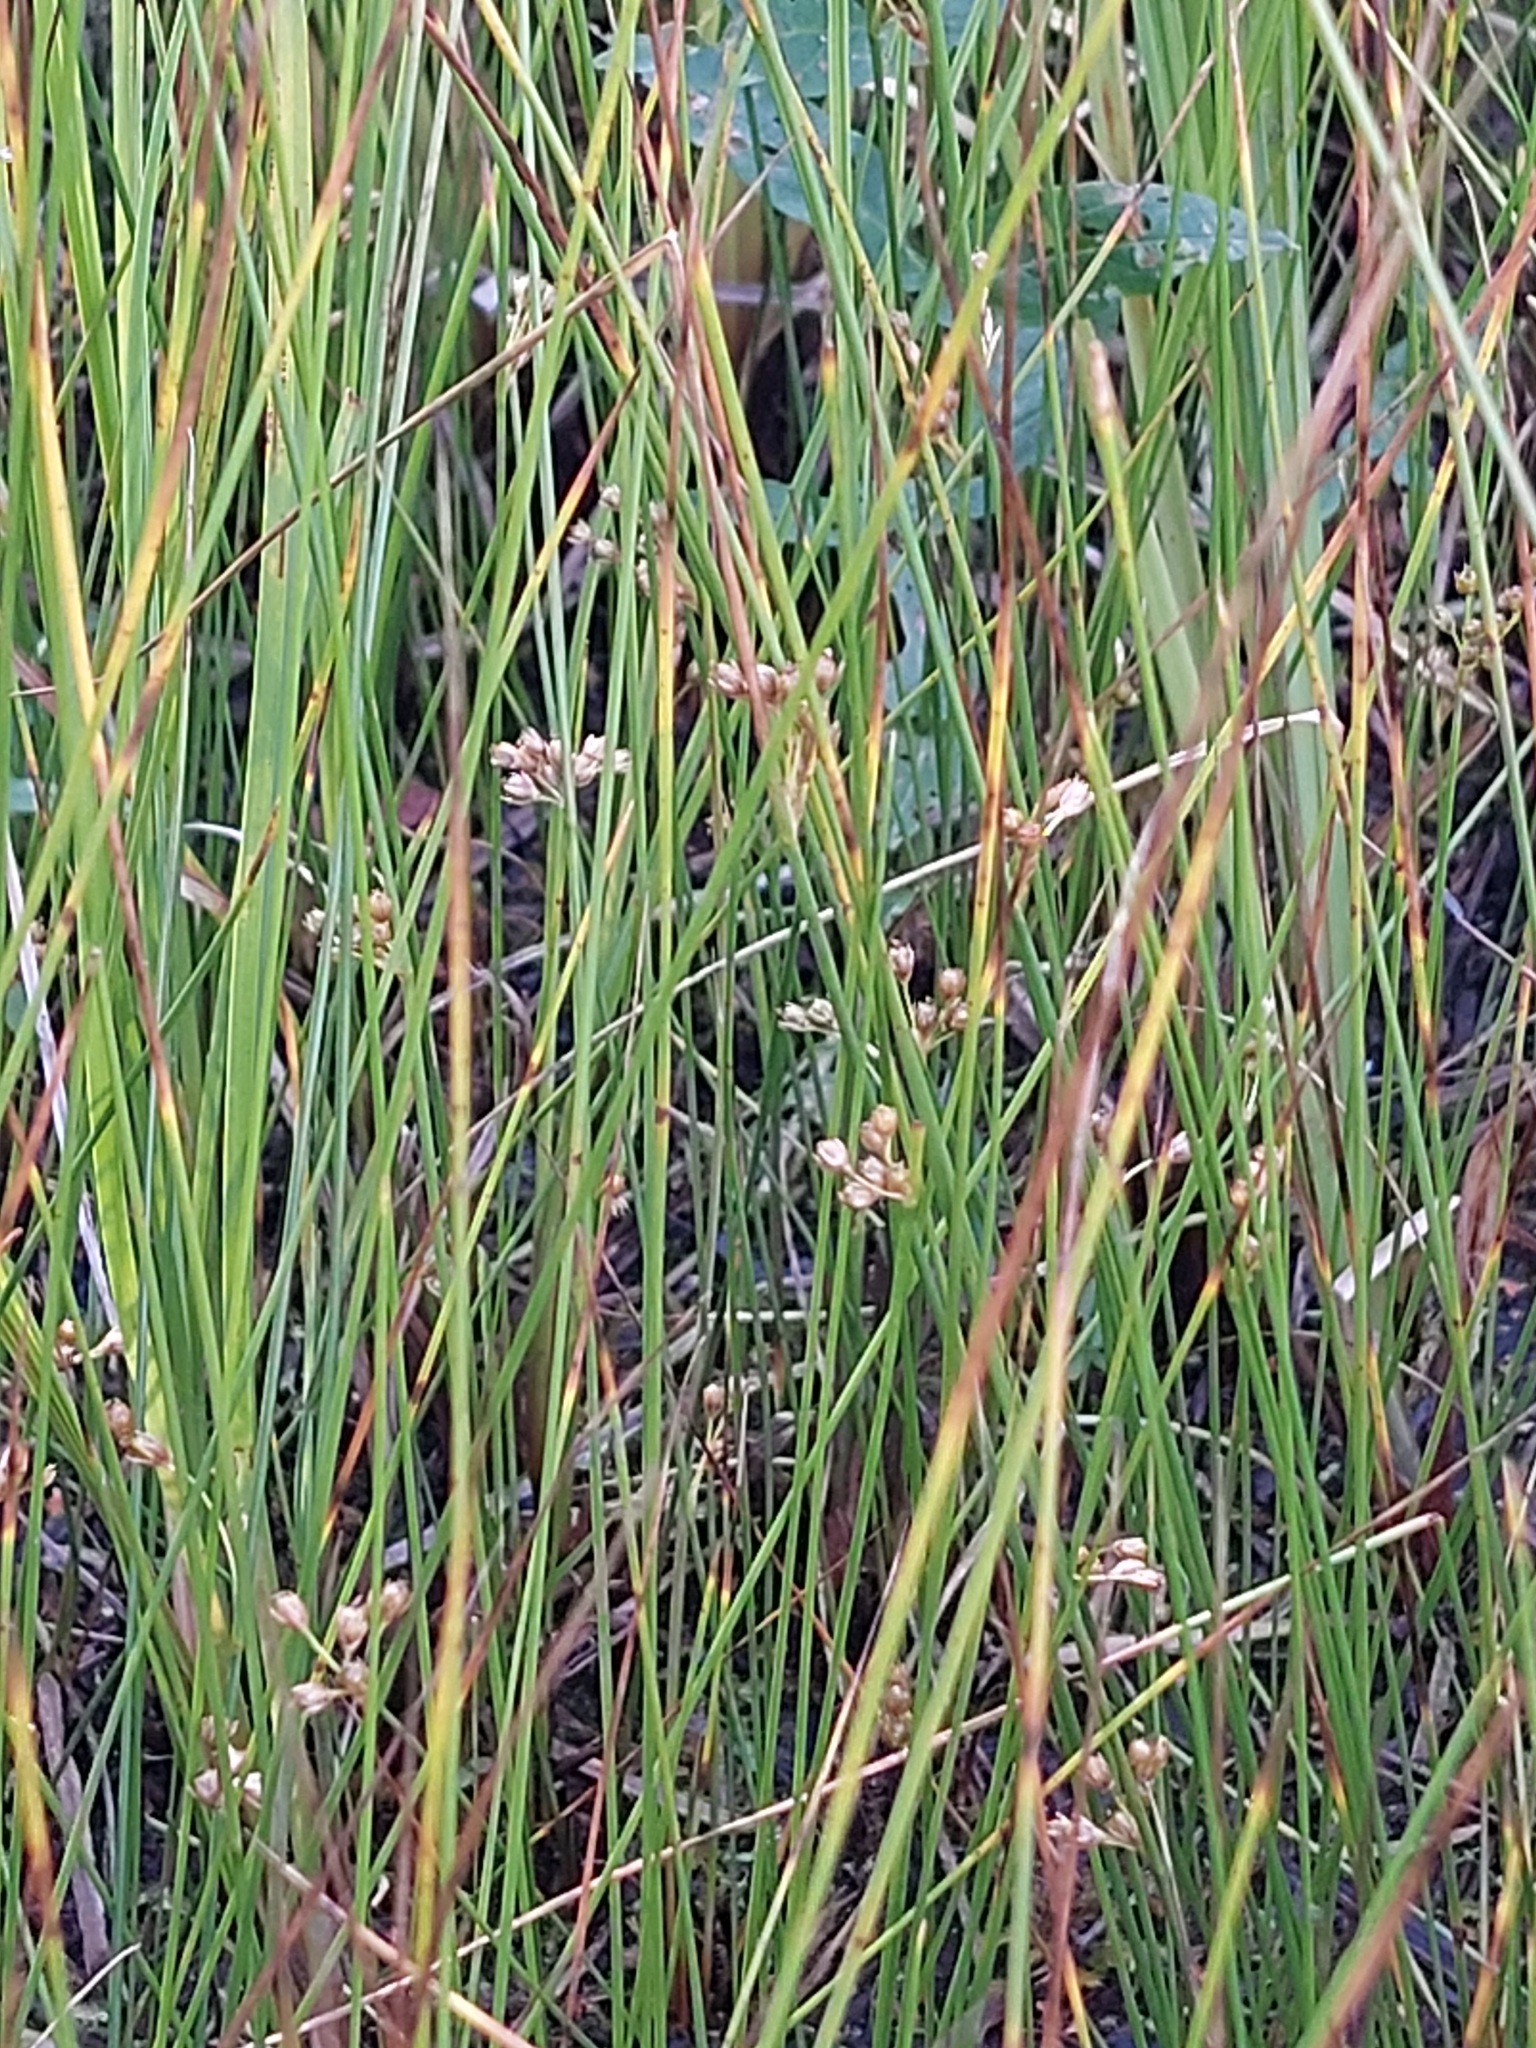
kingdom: Plantae
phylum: Tracheophyta
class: Liliopsida
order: Poales
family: Juncaceae
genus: Juncus
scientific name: Juncus filiformis
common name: Thread rush
